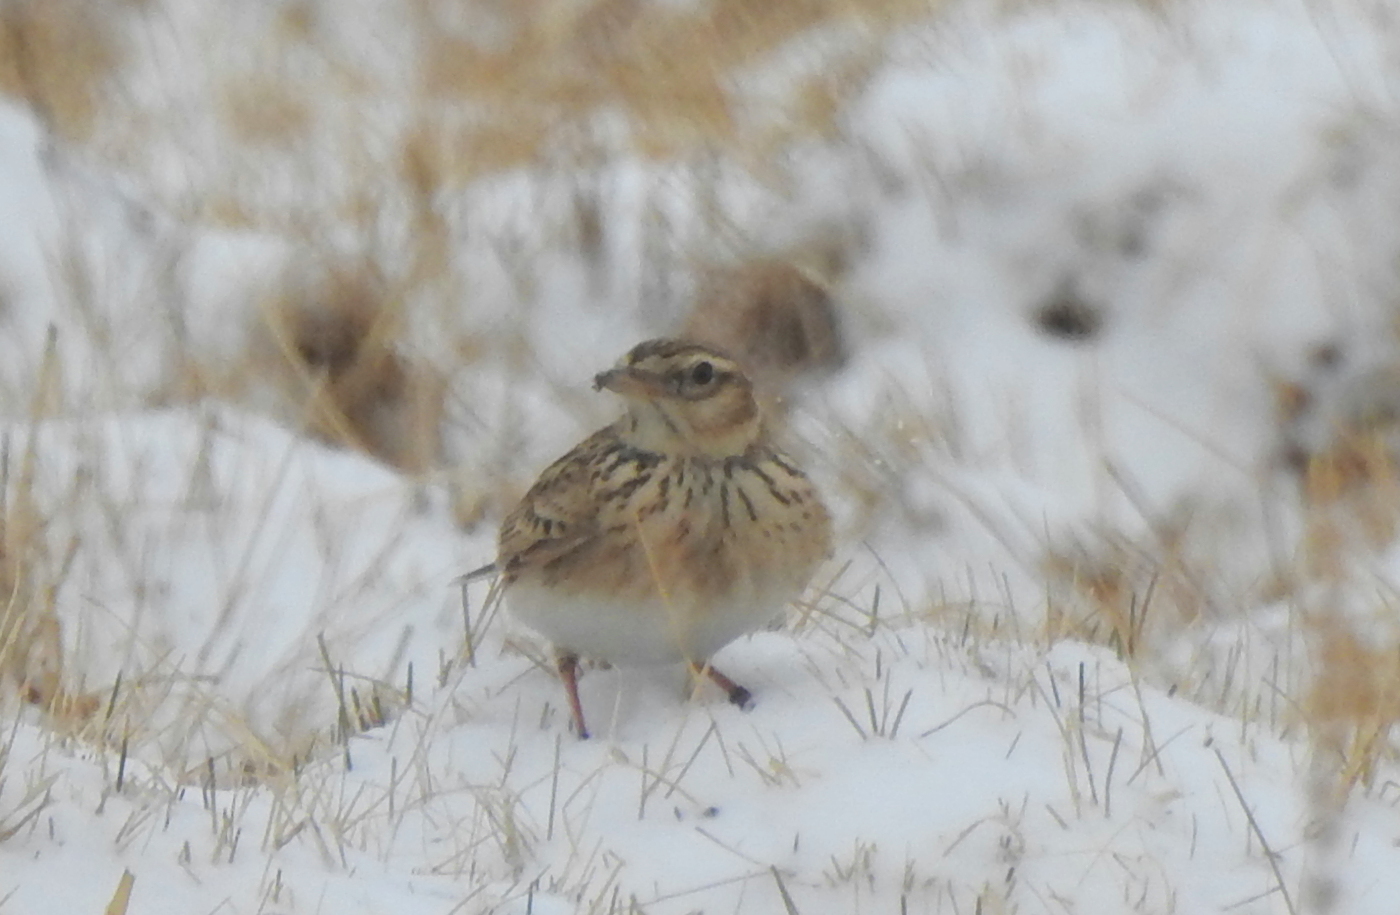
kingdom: Animalia
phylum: Chordata
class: Aves
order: Passeriformes
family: Alaudidae
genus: Alauda
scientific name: Alauda arvensis
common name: Eurasian skylark
